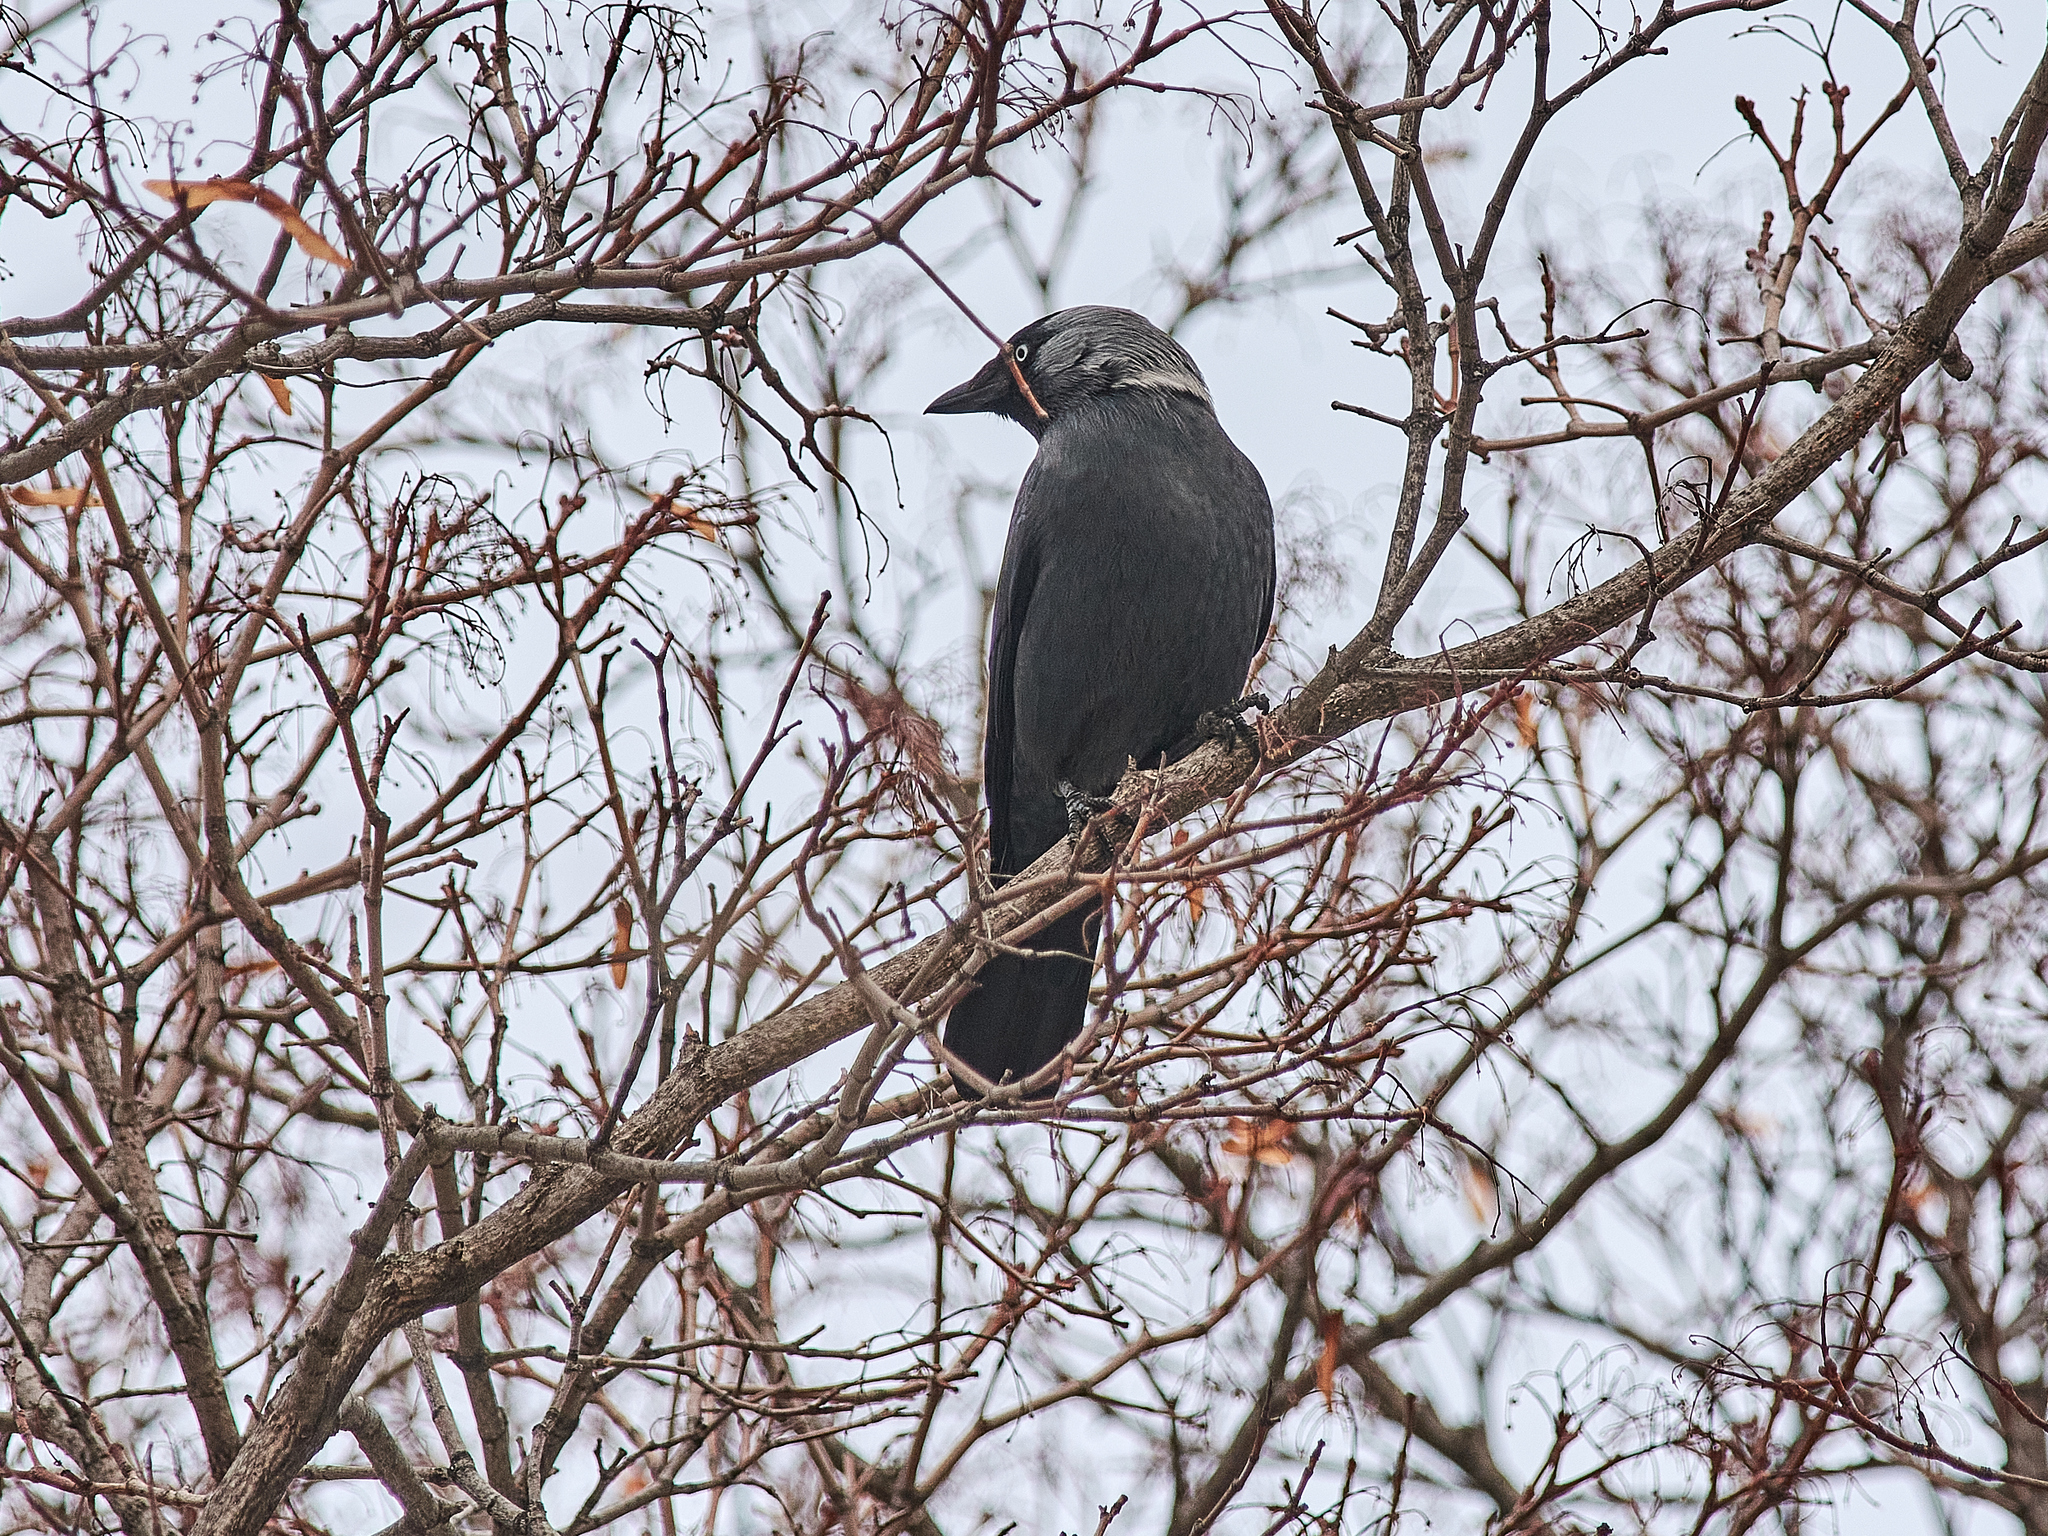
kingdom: Animalia
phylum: Chordata
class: Aves
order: Passeriformes
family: Corvidae
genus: Coloeus
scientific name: Coloeus monedula
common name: Western jackdaw
